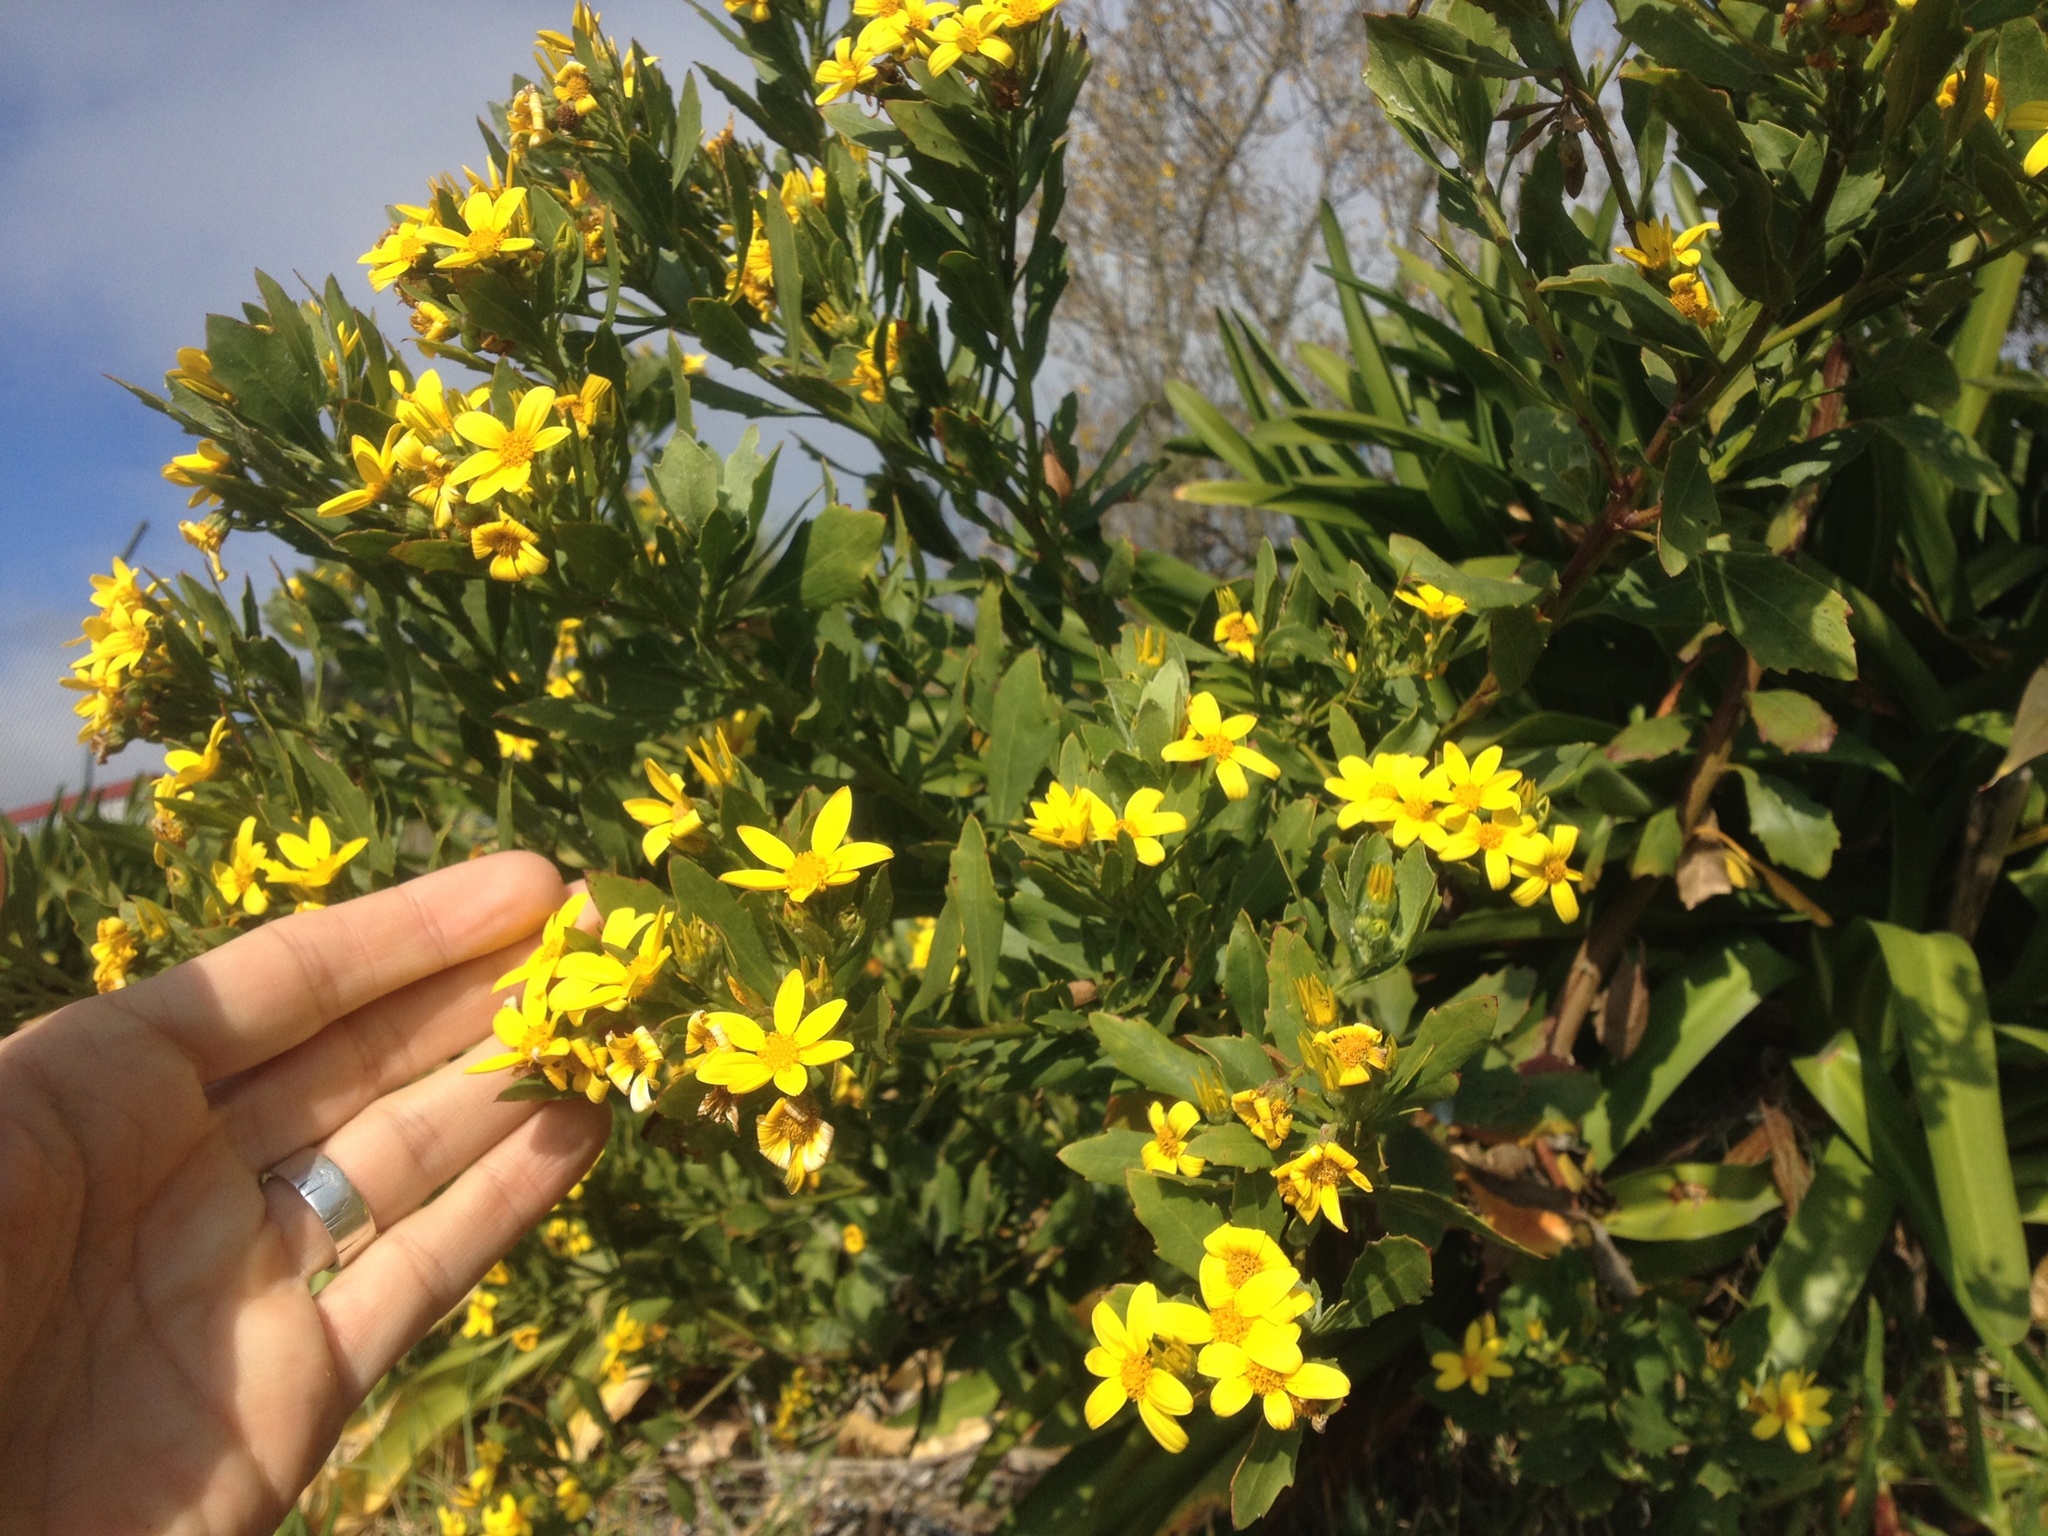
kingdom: Plantae
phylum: Tracheophyta
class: Magnoliopsida
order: Asterales
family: Asteraceae
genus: Osteospermum
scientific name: Osteospermum moniliferum
